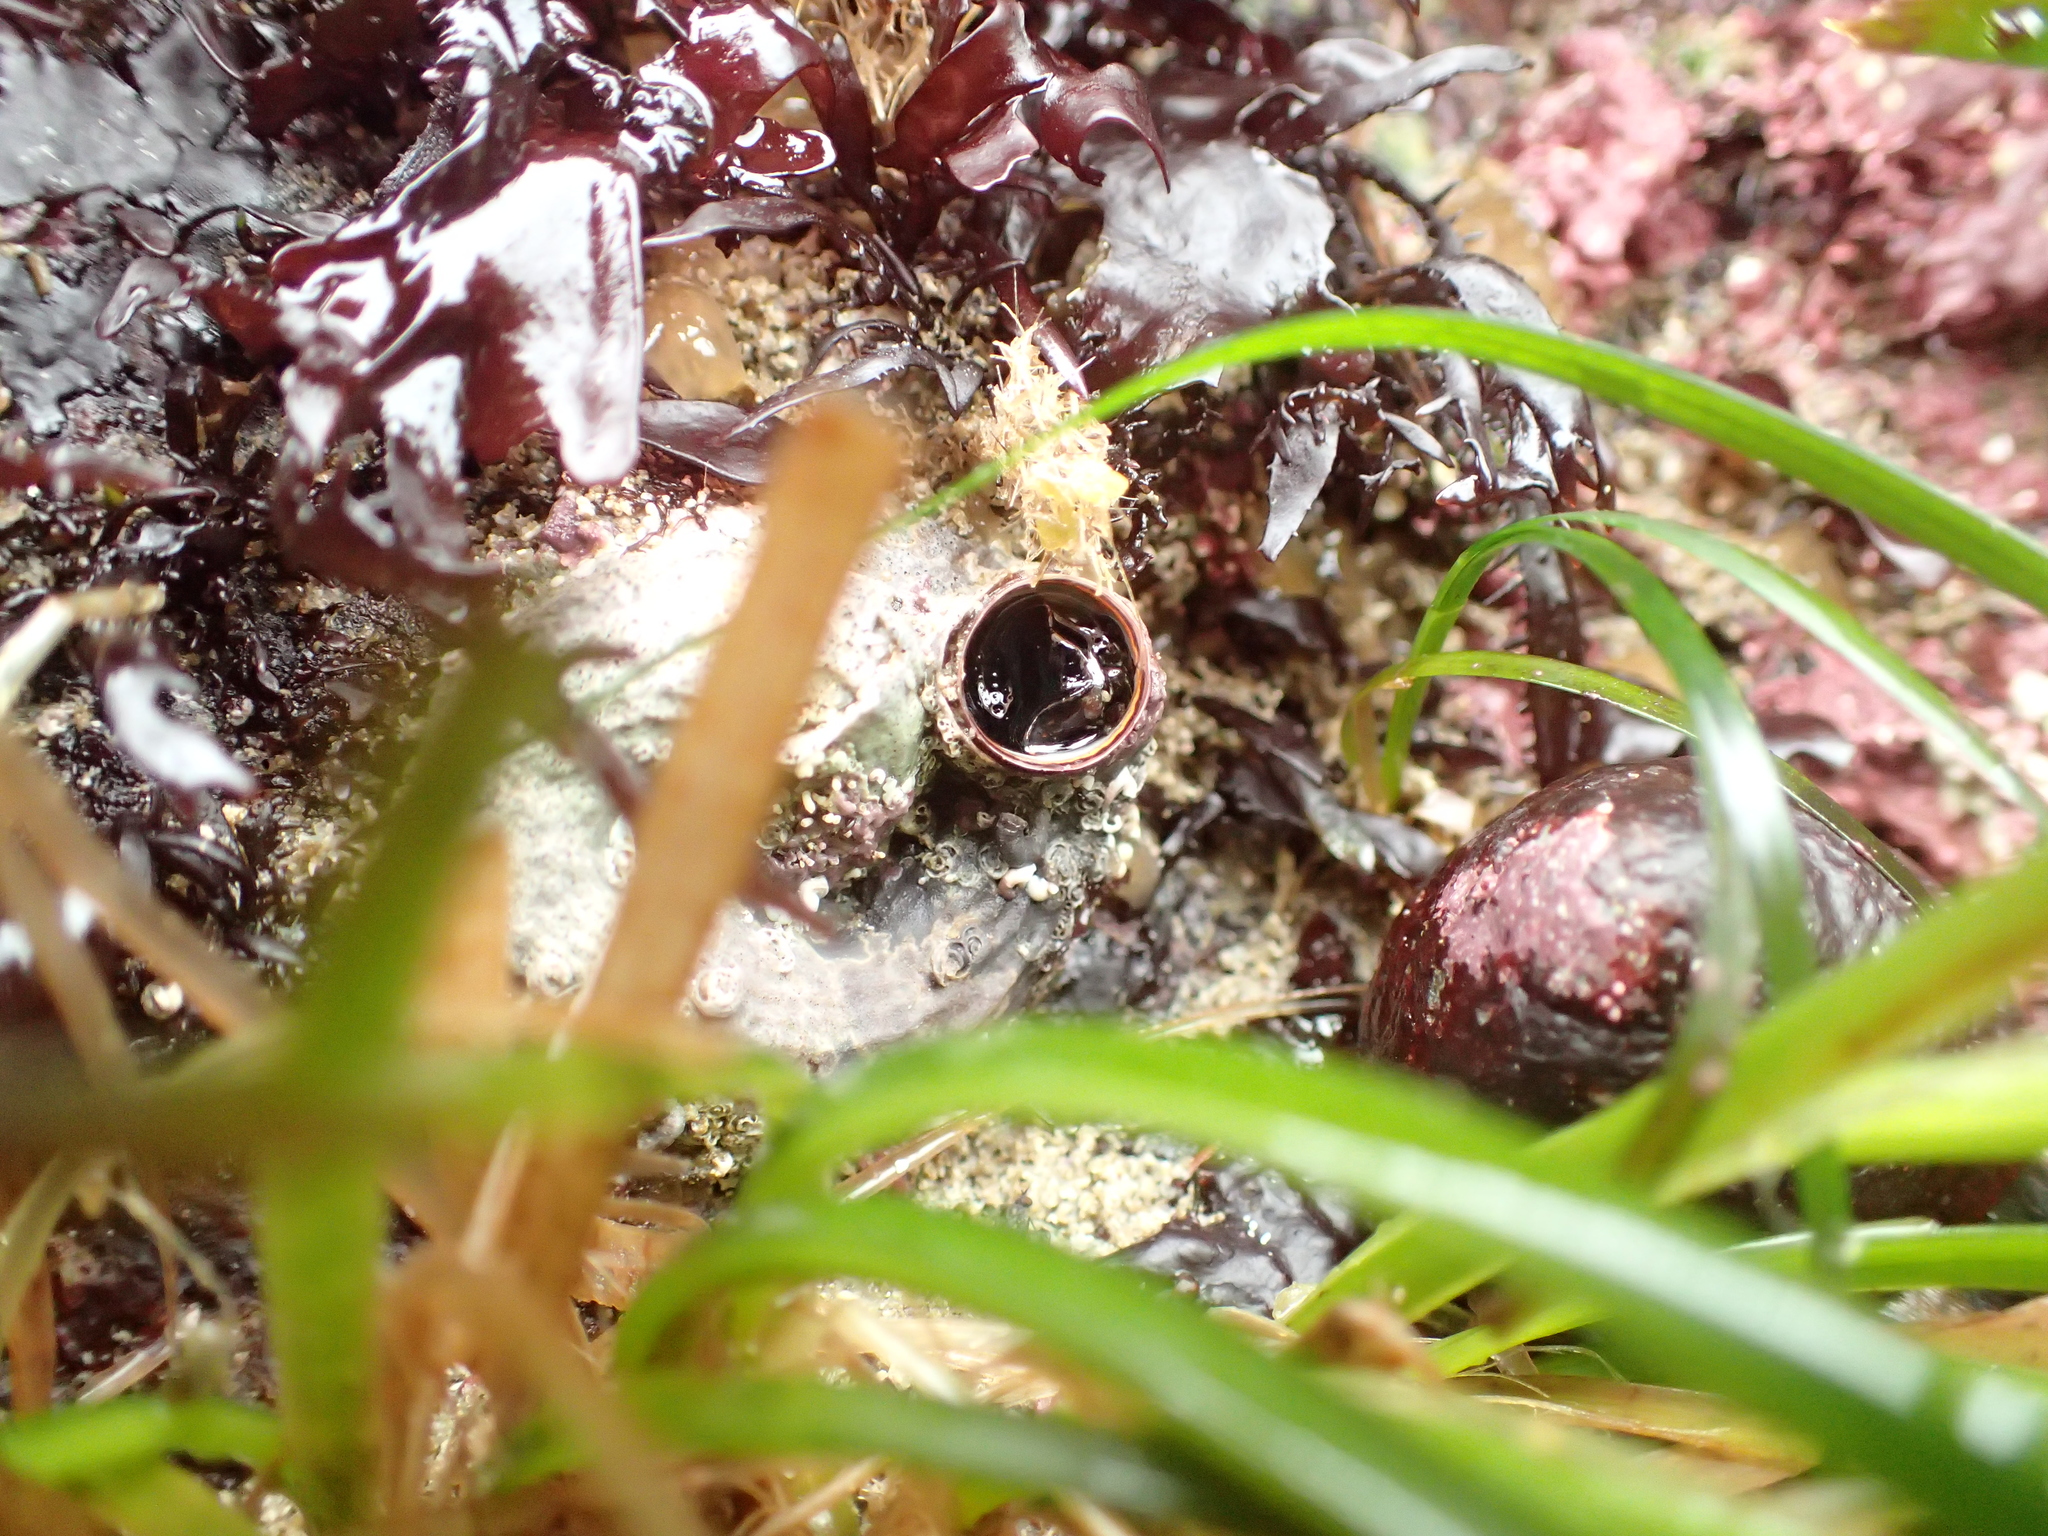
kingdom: Animalia
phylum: Mollusca
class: Gastropoda
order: Littorinimorpha
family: Vermetidae
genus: Thylacodes
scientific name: Thylacodes squamigerus
